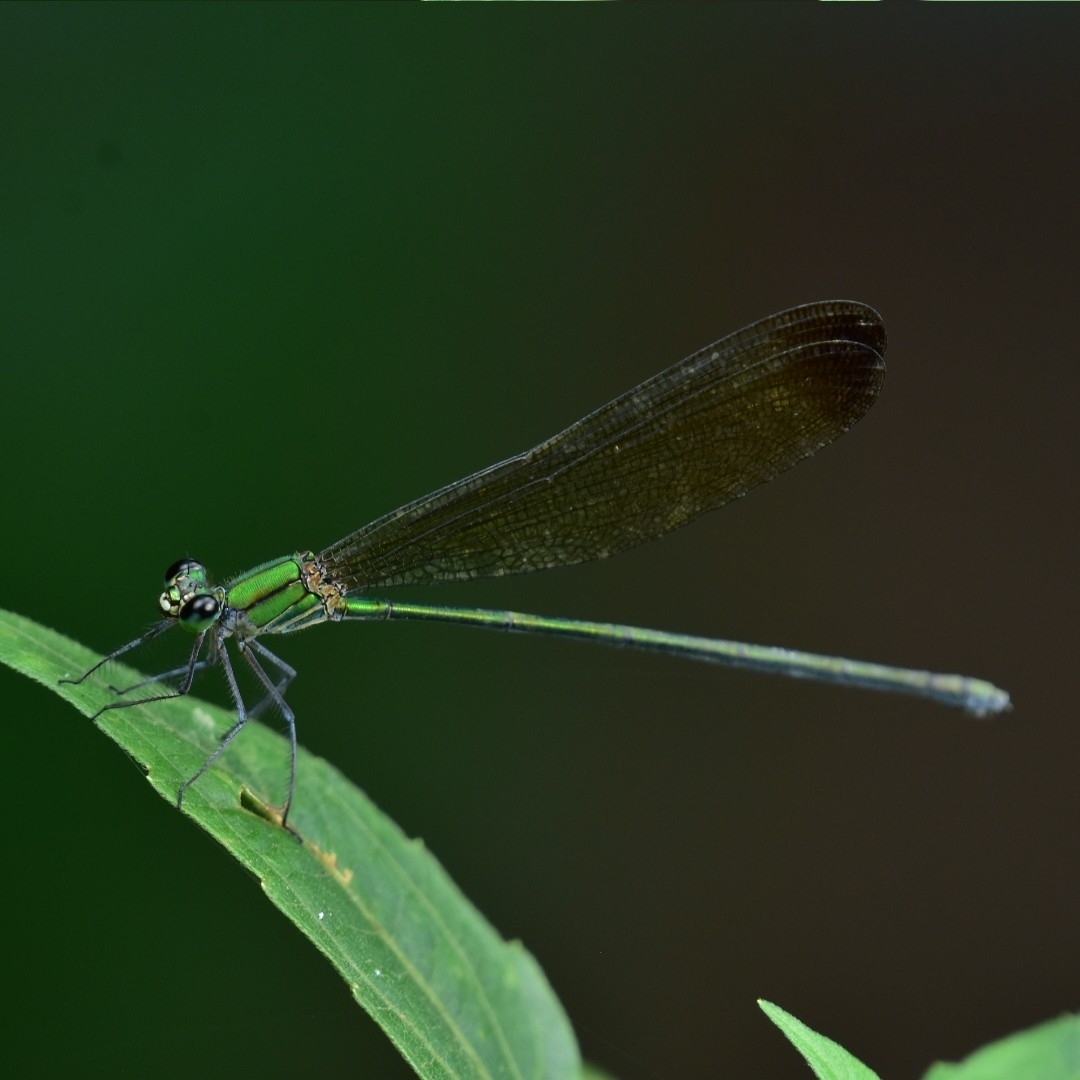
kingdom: Animalia
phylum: Arthropoda
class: Insecta
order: Odonata
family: Calopterygidae
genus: Vestalis
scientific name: Vestalis apicalis
